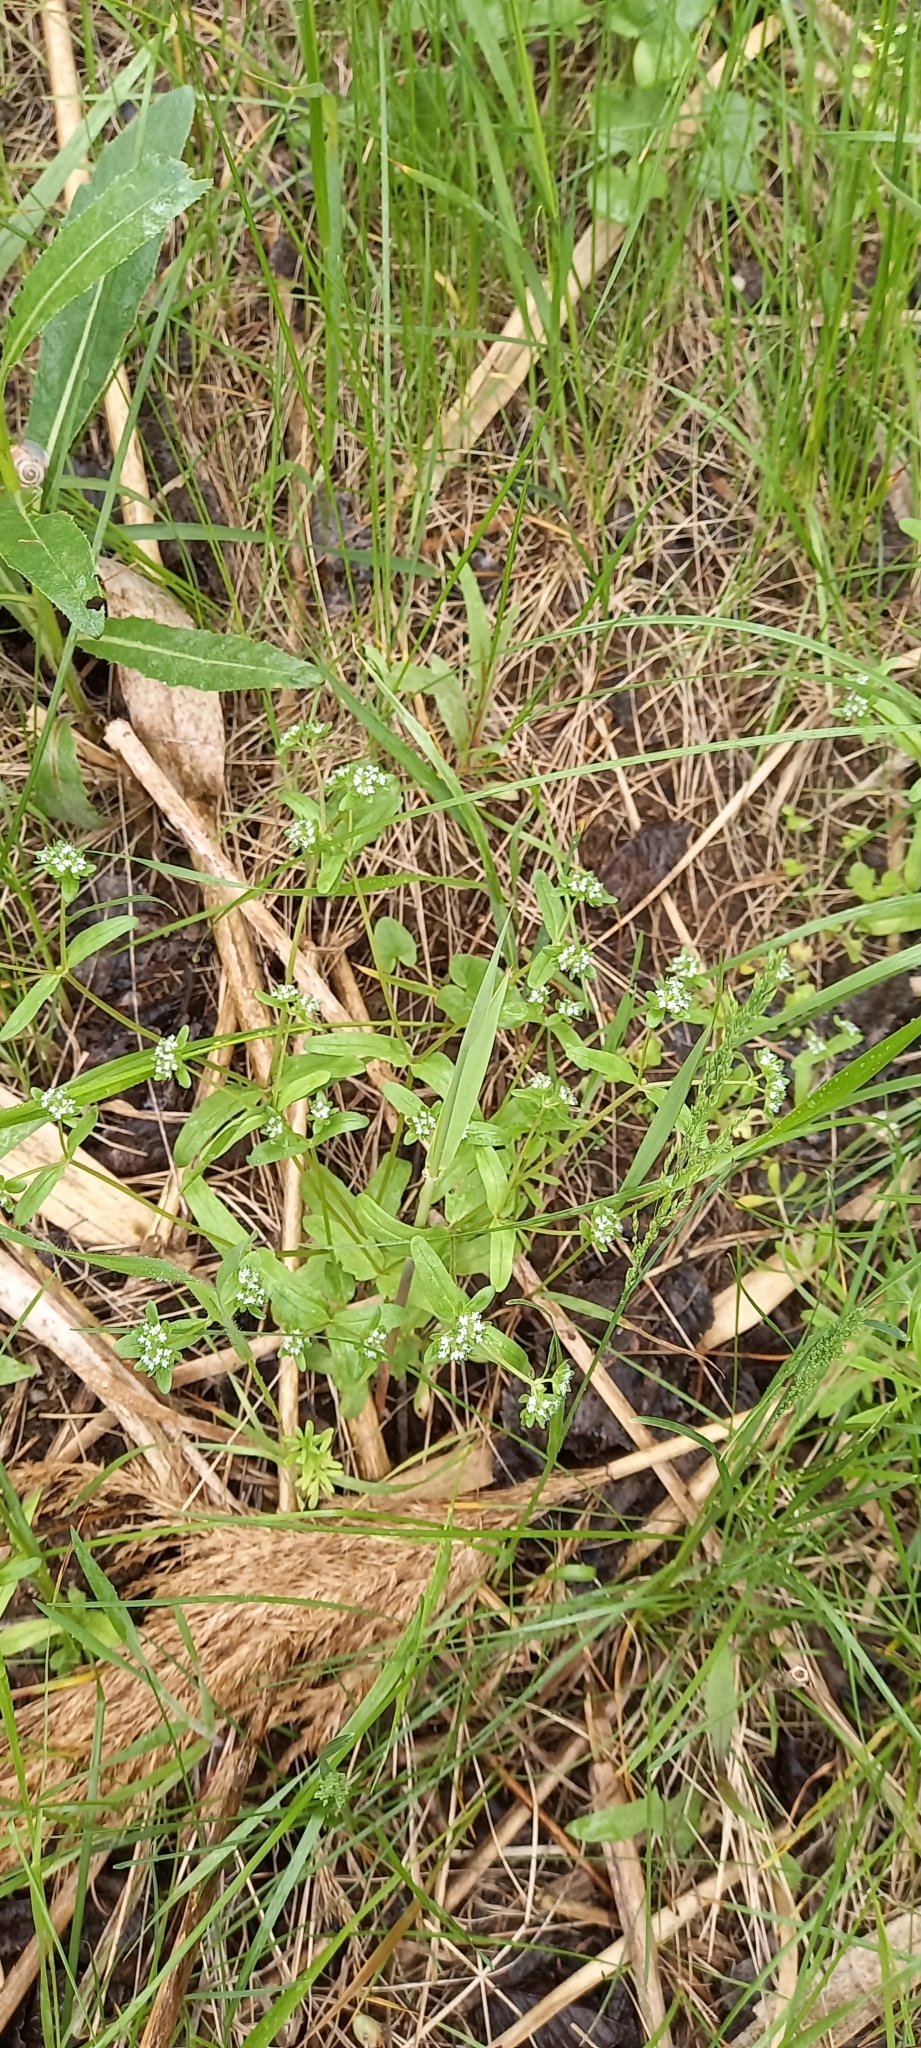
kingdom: Plantae
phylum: Tracheophyta
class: Magnoliopsida
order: Dipsacales
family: Caprifoliaceae
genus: Valerianella
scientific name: Valerianella locusta
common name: Common cornsalad
